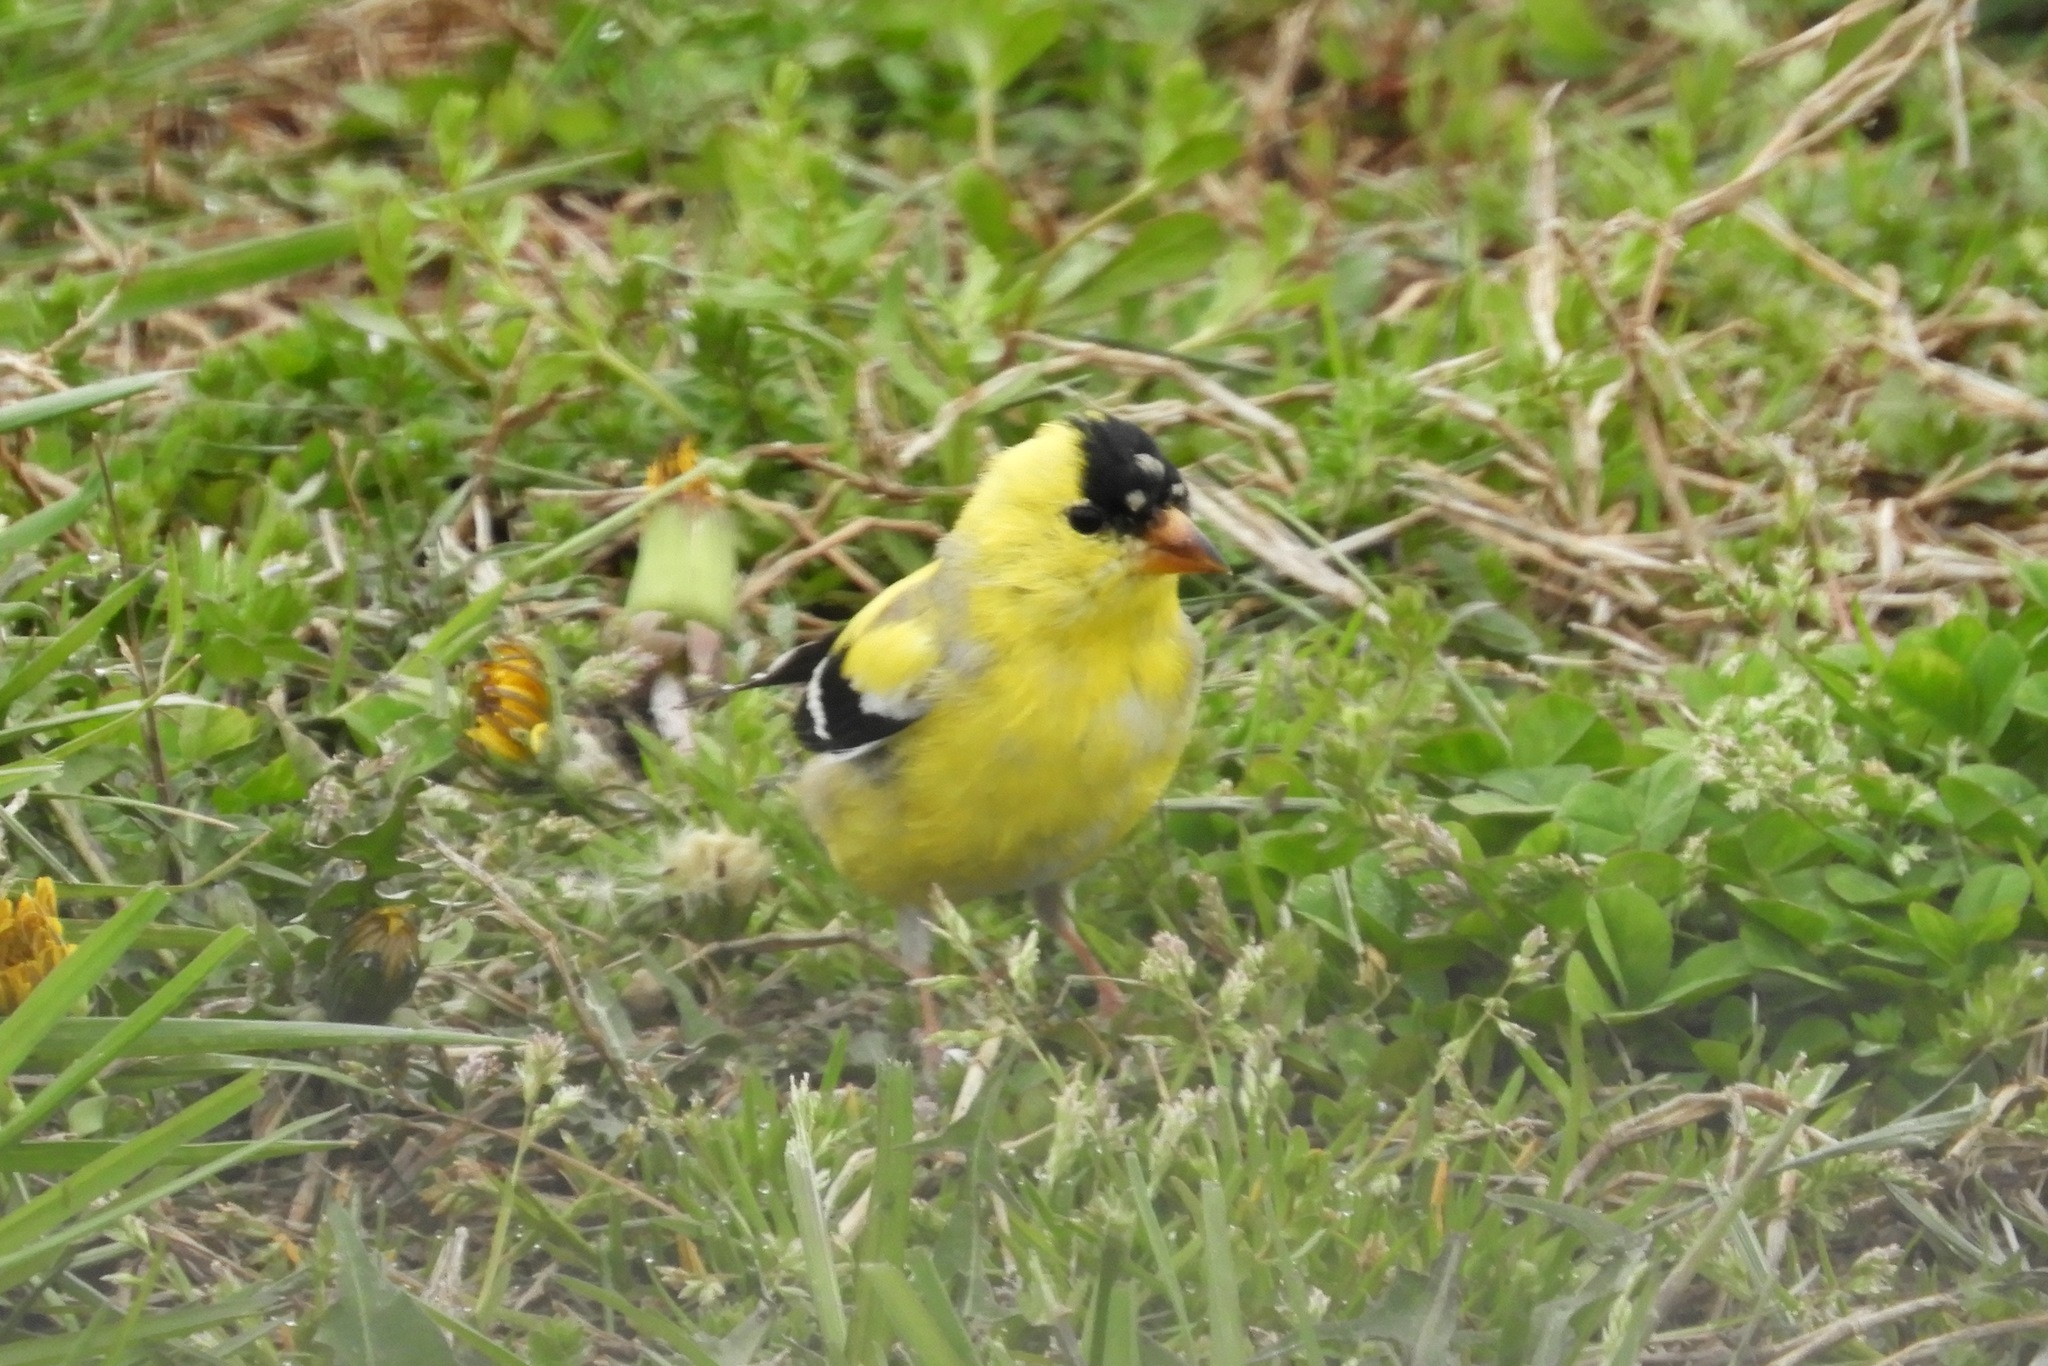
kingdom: Animalia
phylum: Chordata
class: Aves
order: Passeriformes
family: Fringillidae
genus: Spinus
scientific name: Spinus tristis
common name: American goldfinch
